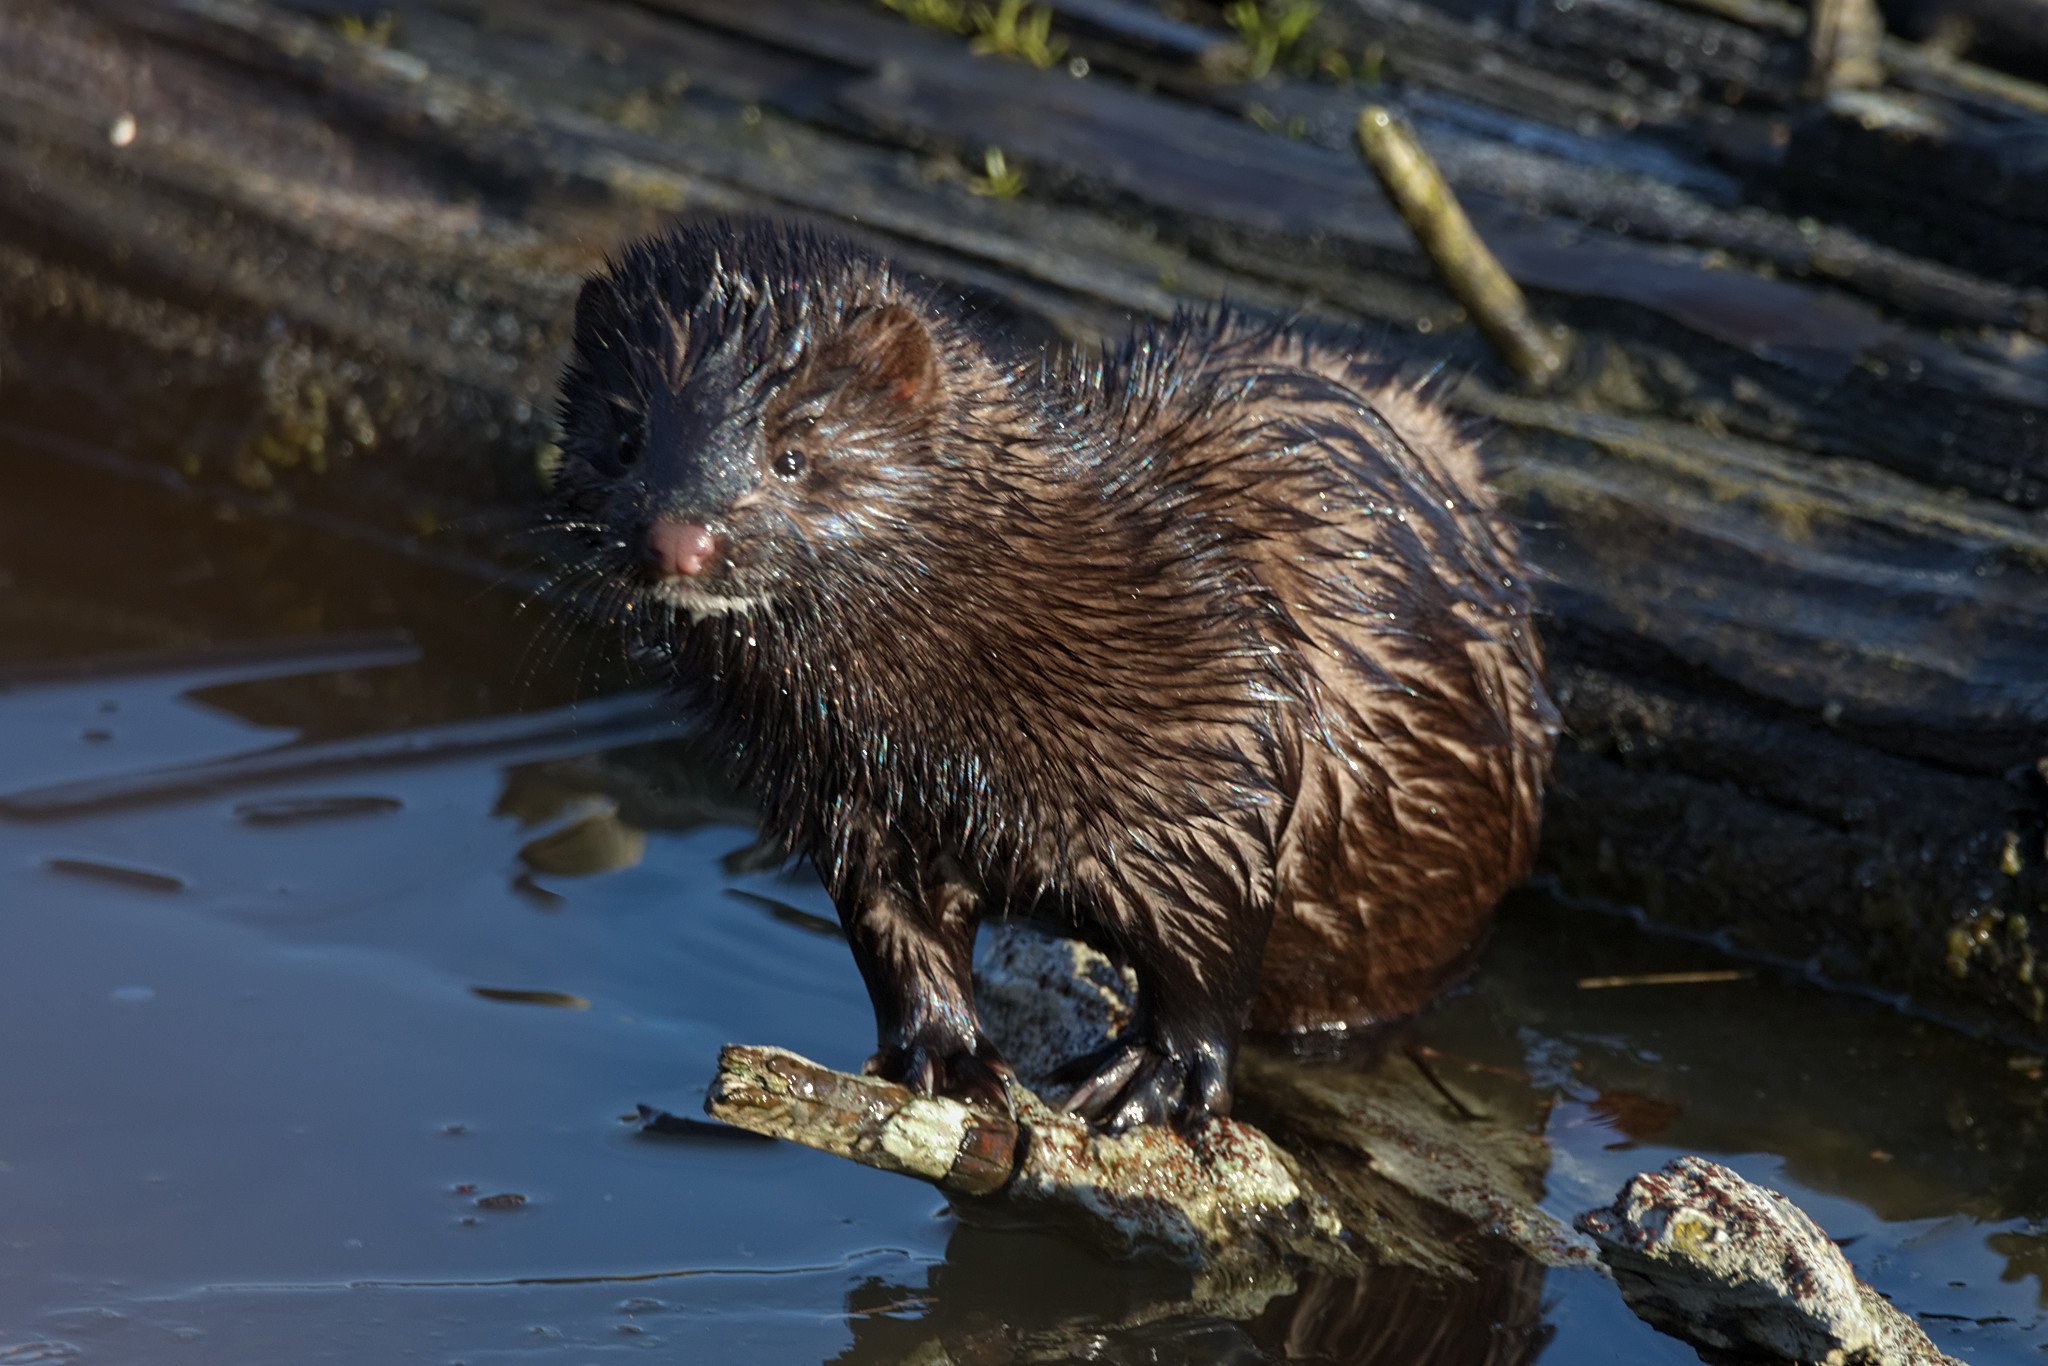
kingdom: Animalia
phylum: Chordata
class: Mammalia
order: Carnivora
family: Mustelidae
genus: Mustela
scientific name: Mustela
